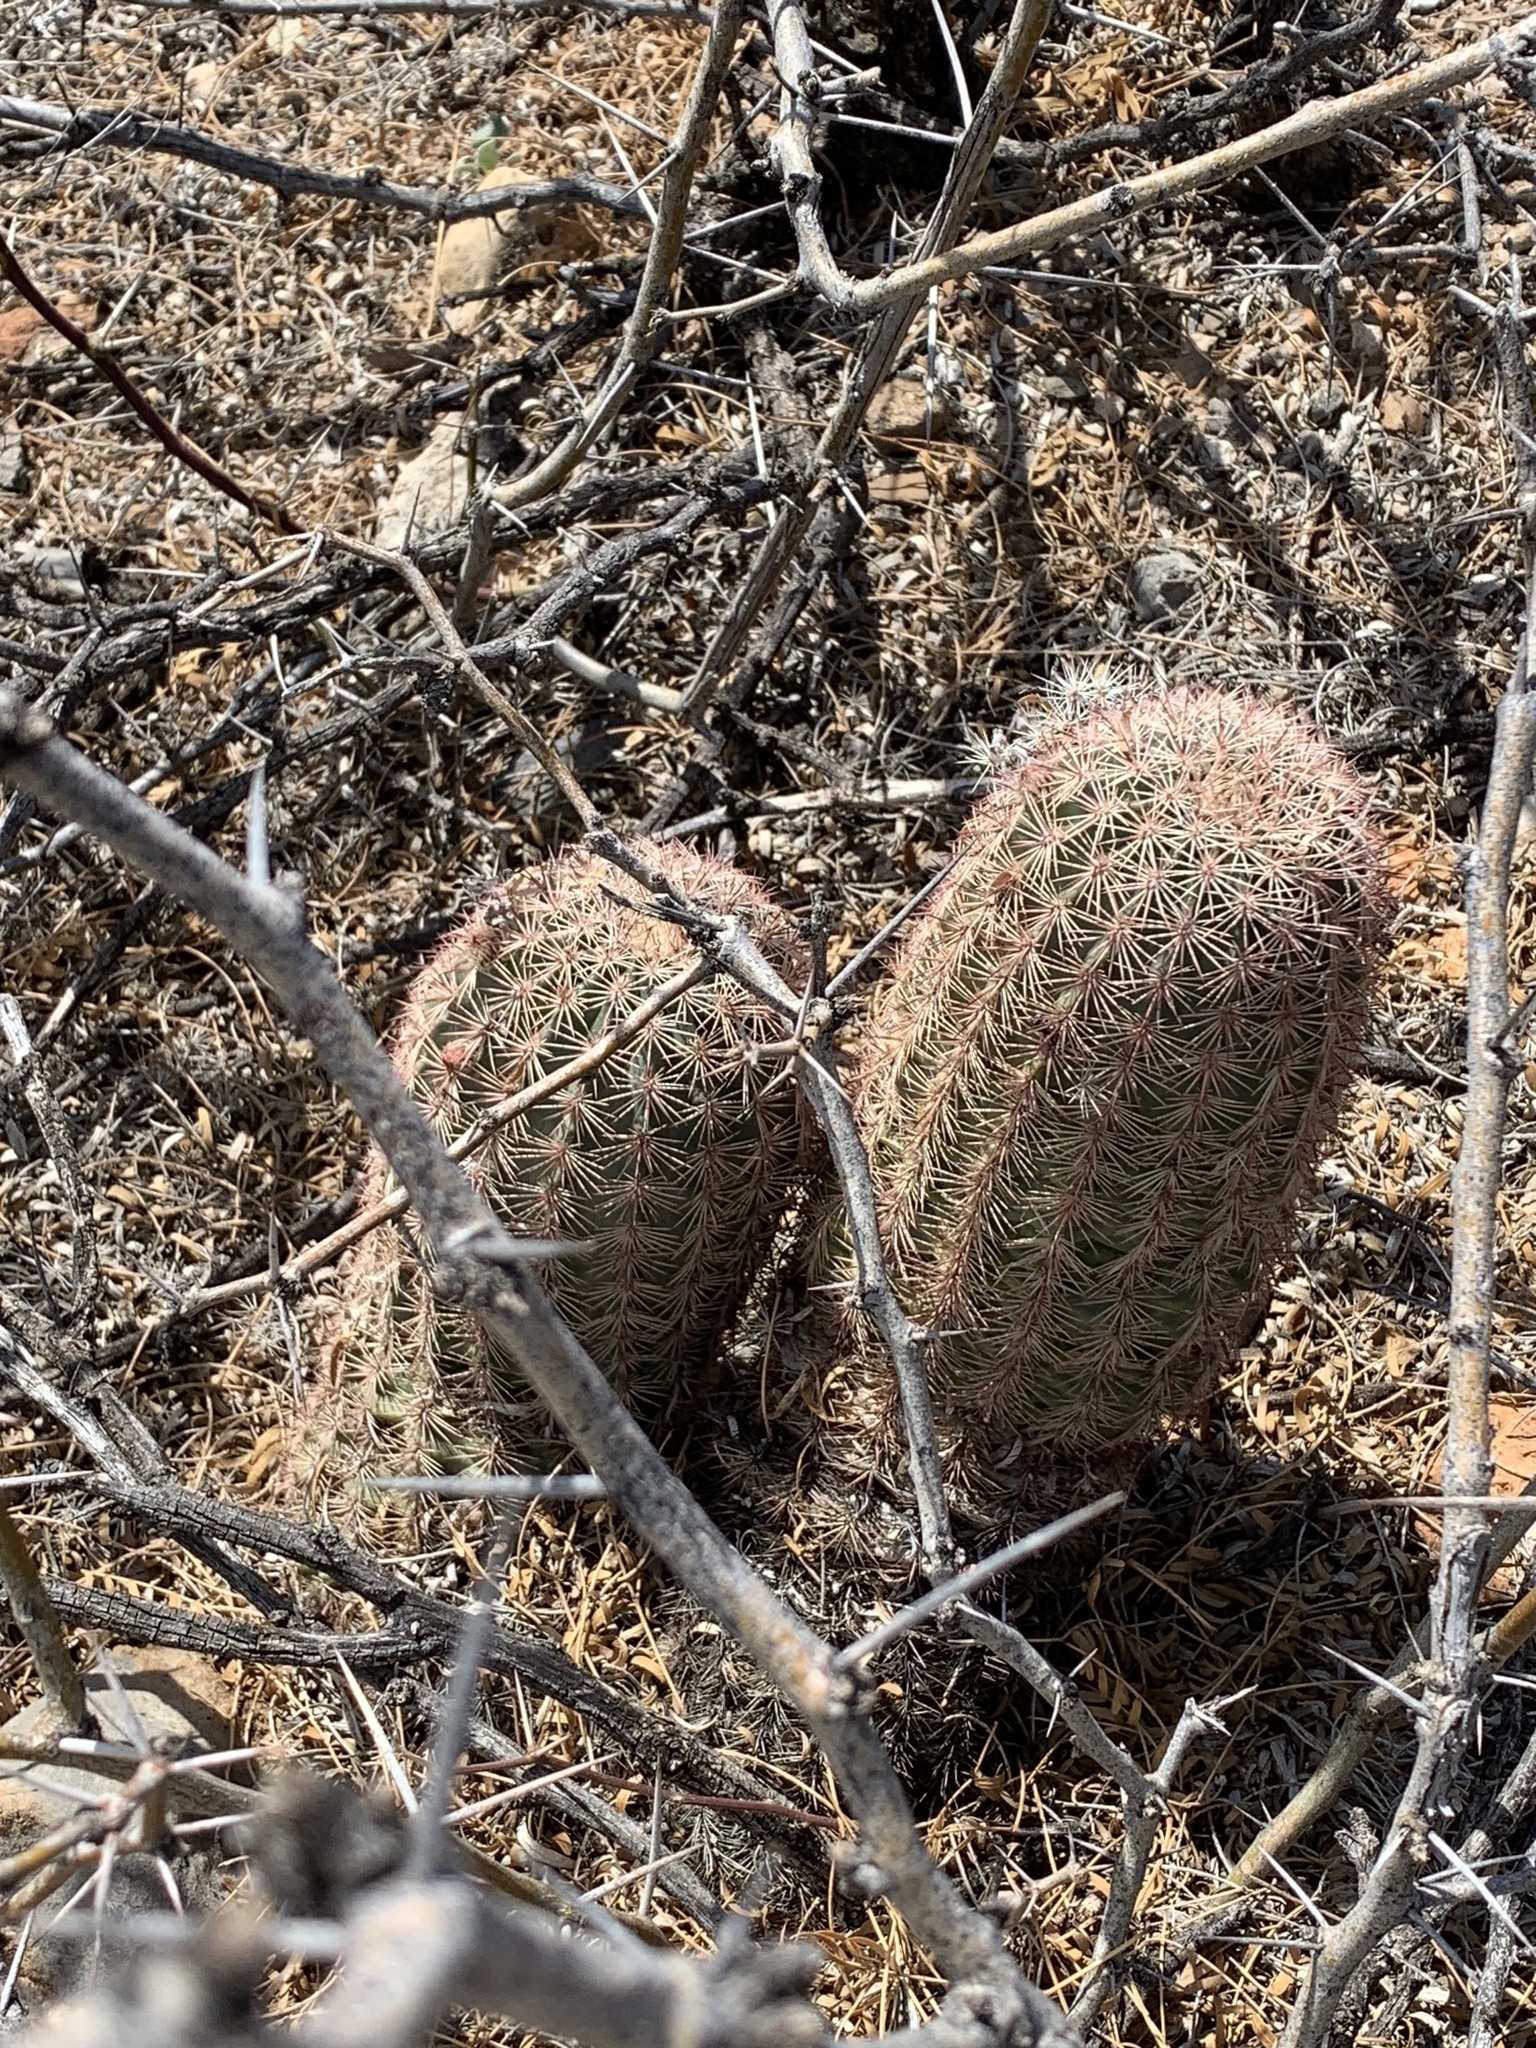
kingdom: Plantae
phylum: Tracheophyta
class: Magnoliopsida
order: Caryophyllales
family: Cactaceae
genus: Echinocereus
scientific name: Echinocereus dasyacanthus
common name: Spiny hedgehog cactus
